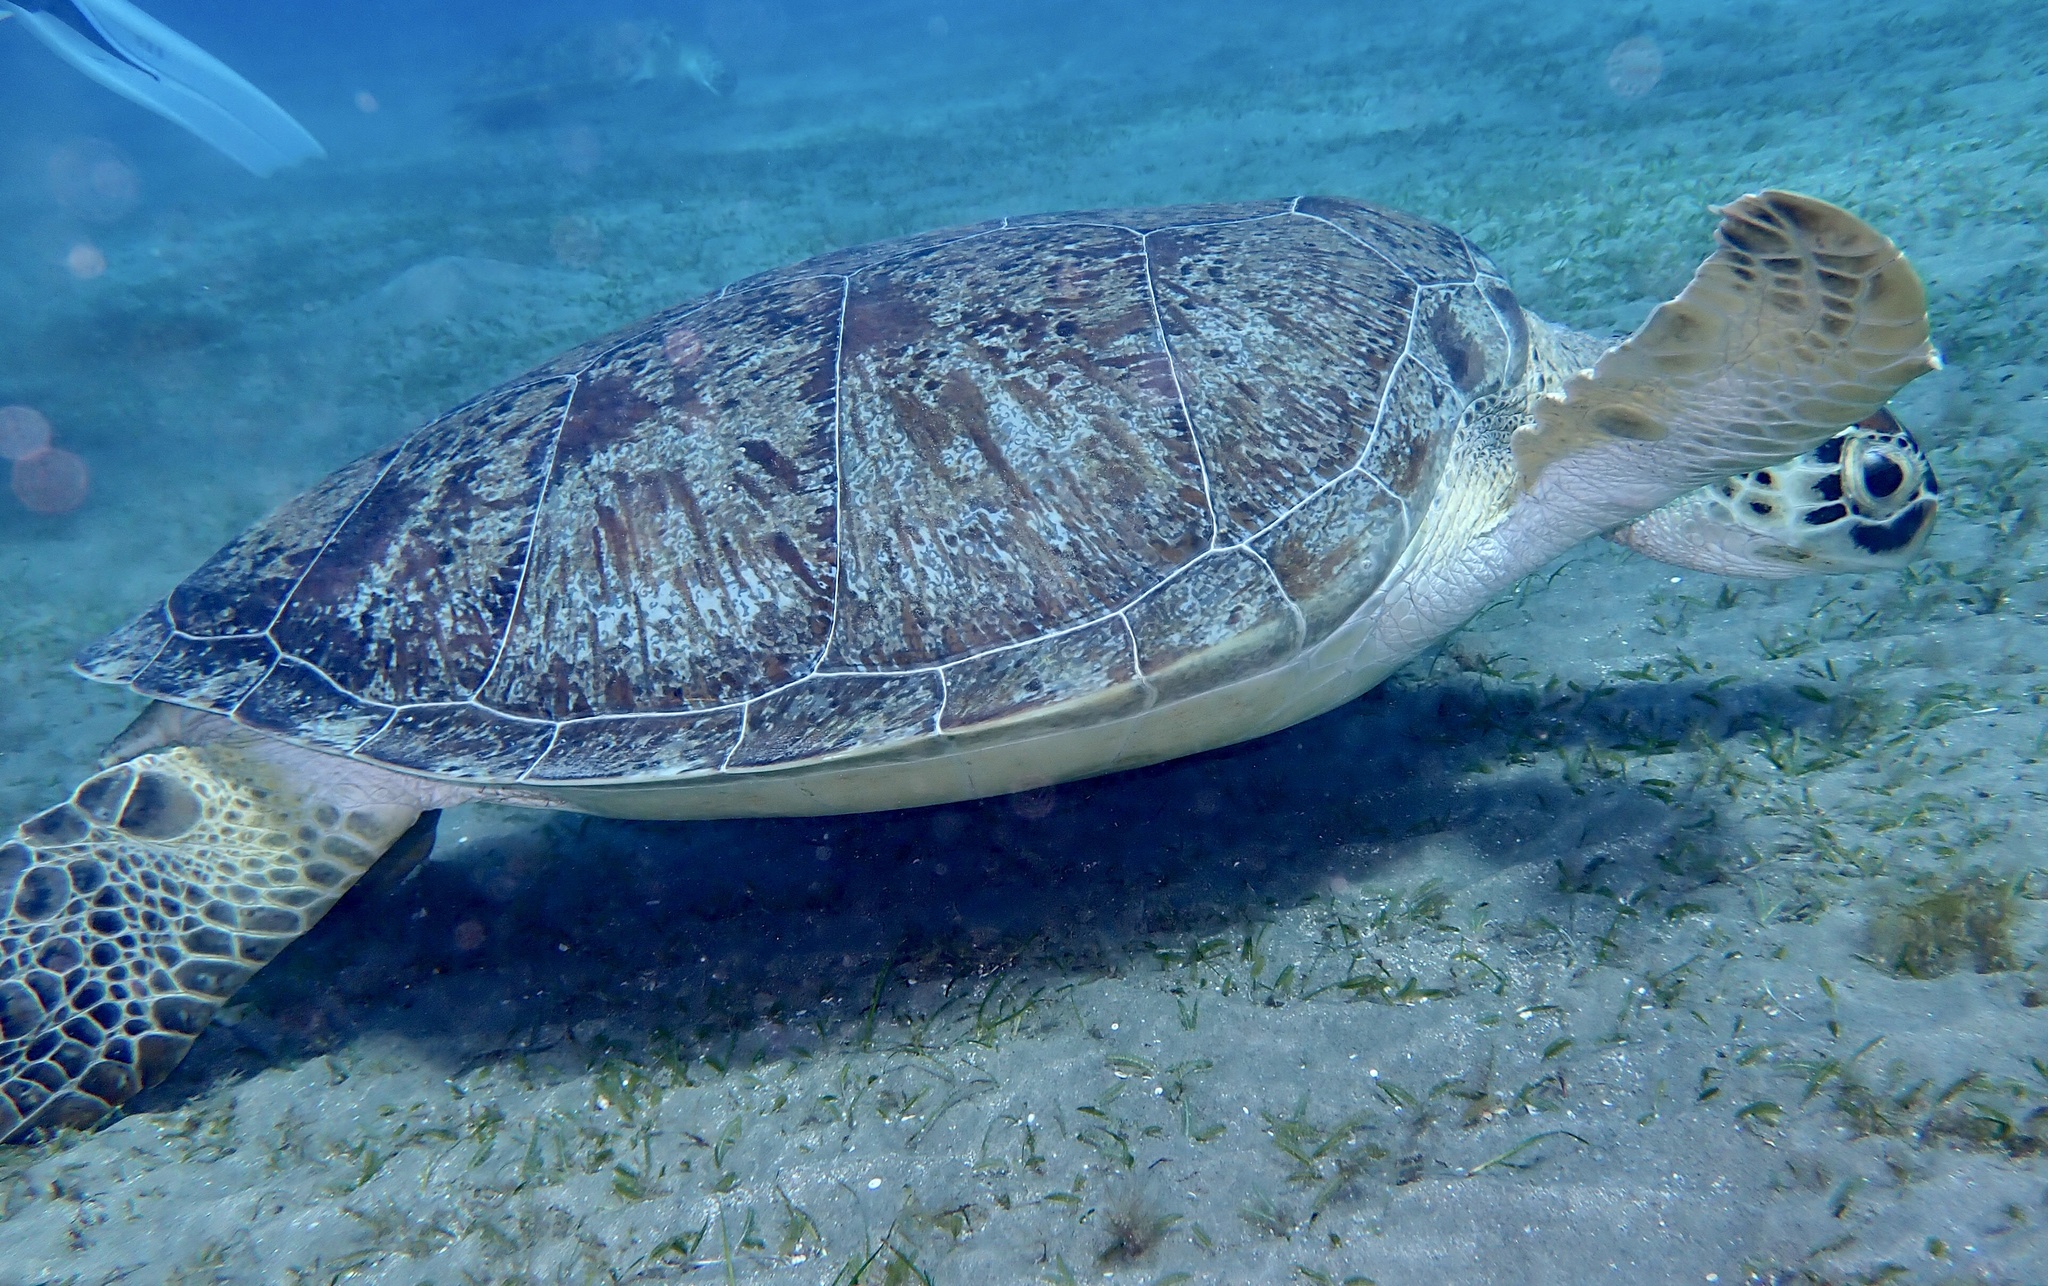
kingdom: Animalia
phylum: Chordata
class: Testudines
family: Cheloniidae
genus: Chelonia
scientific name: Chelonia mydas
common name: Green turtle
